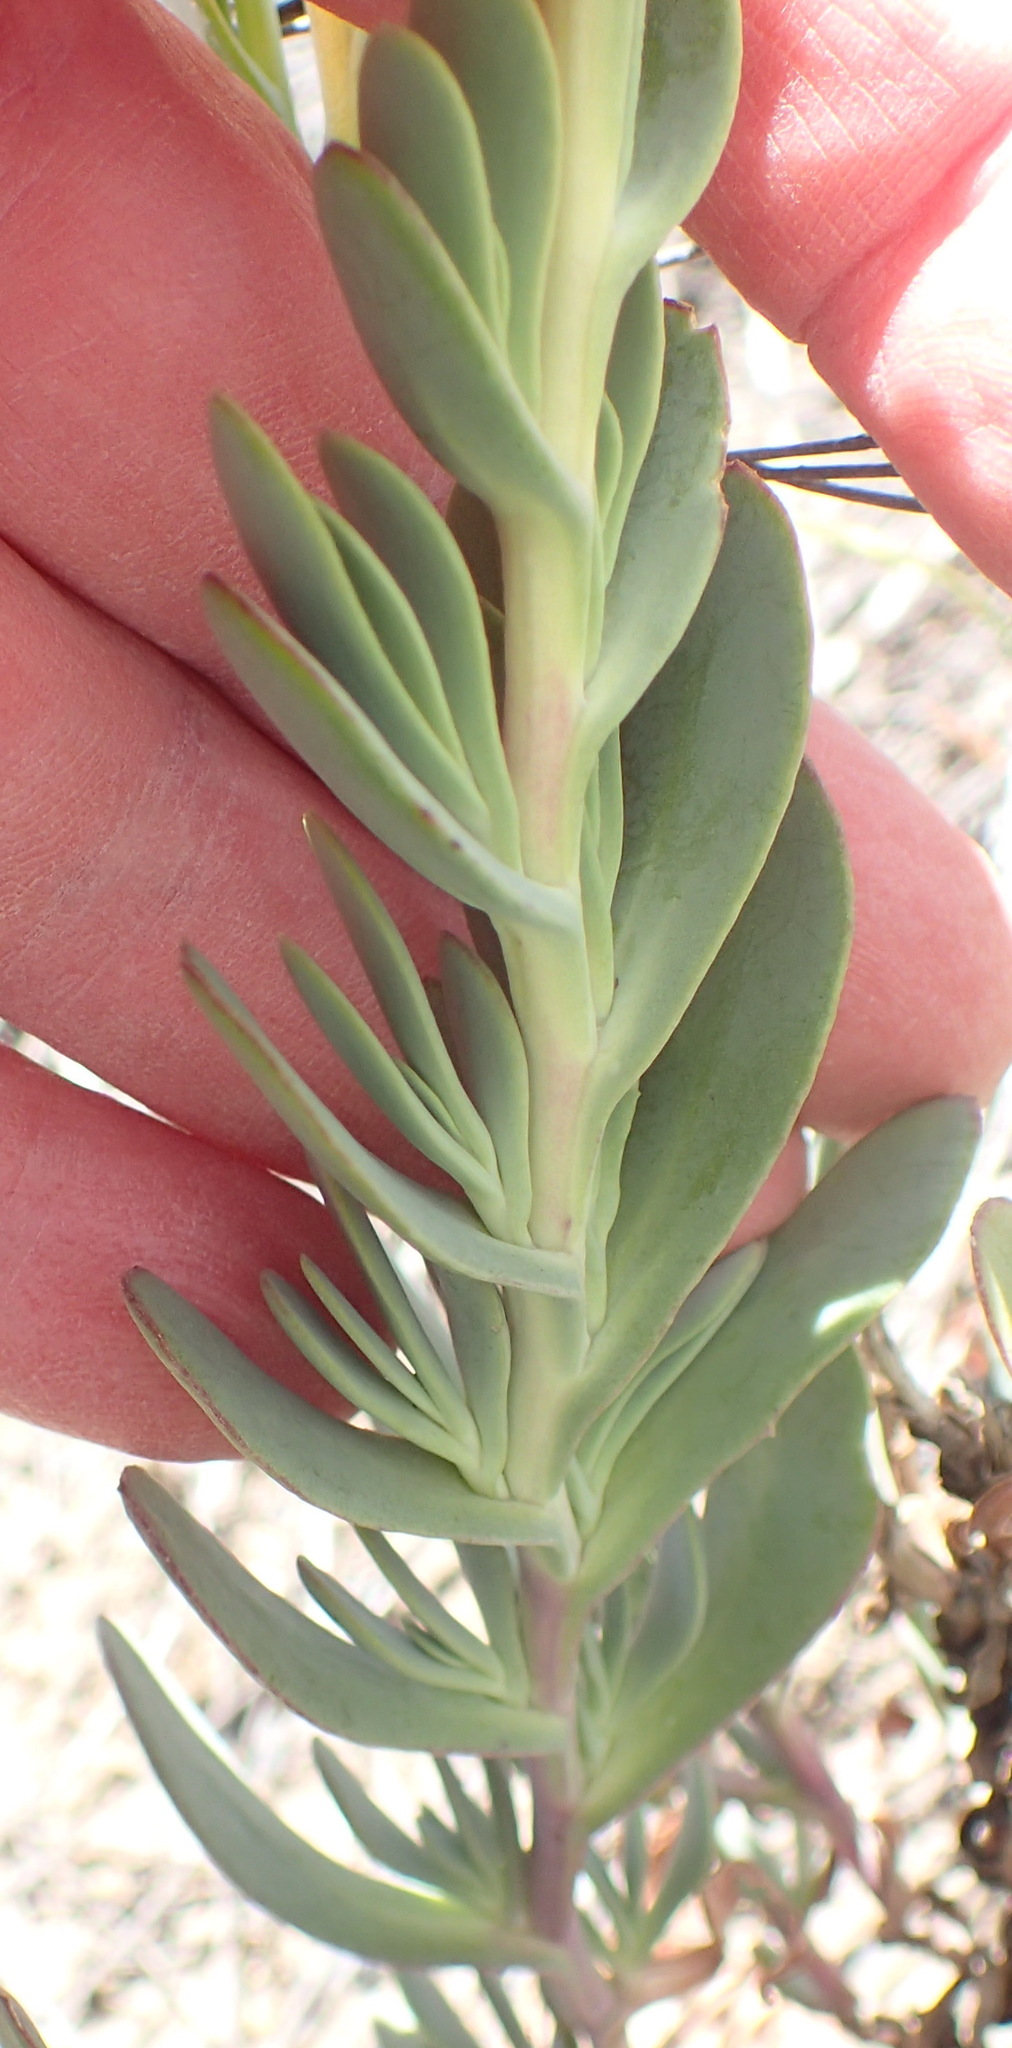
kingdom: Plantae
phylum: Tracheophyta
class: Magnoliopsida
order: Asterales
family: Asteraceae
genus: Hertia
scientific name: Hertia kraussii
